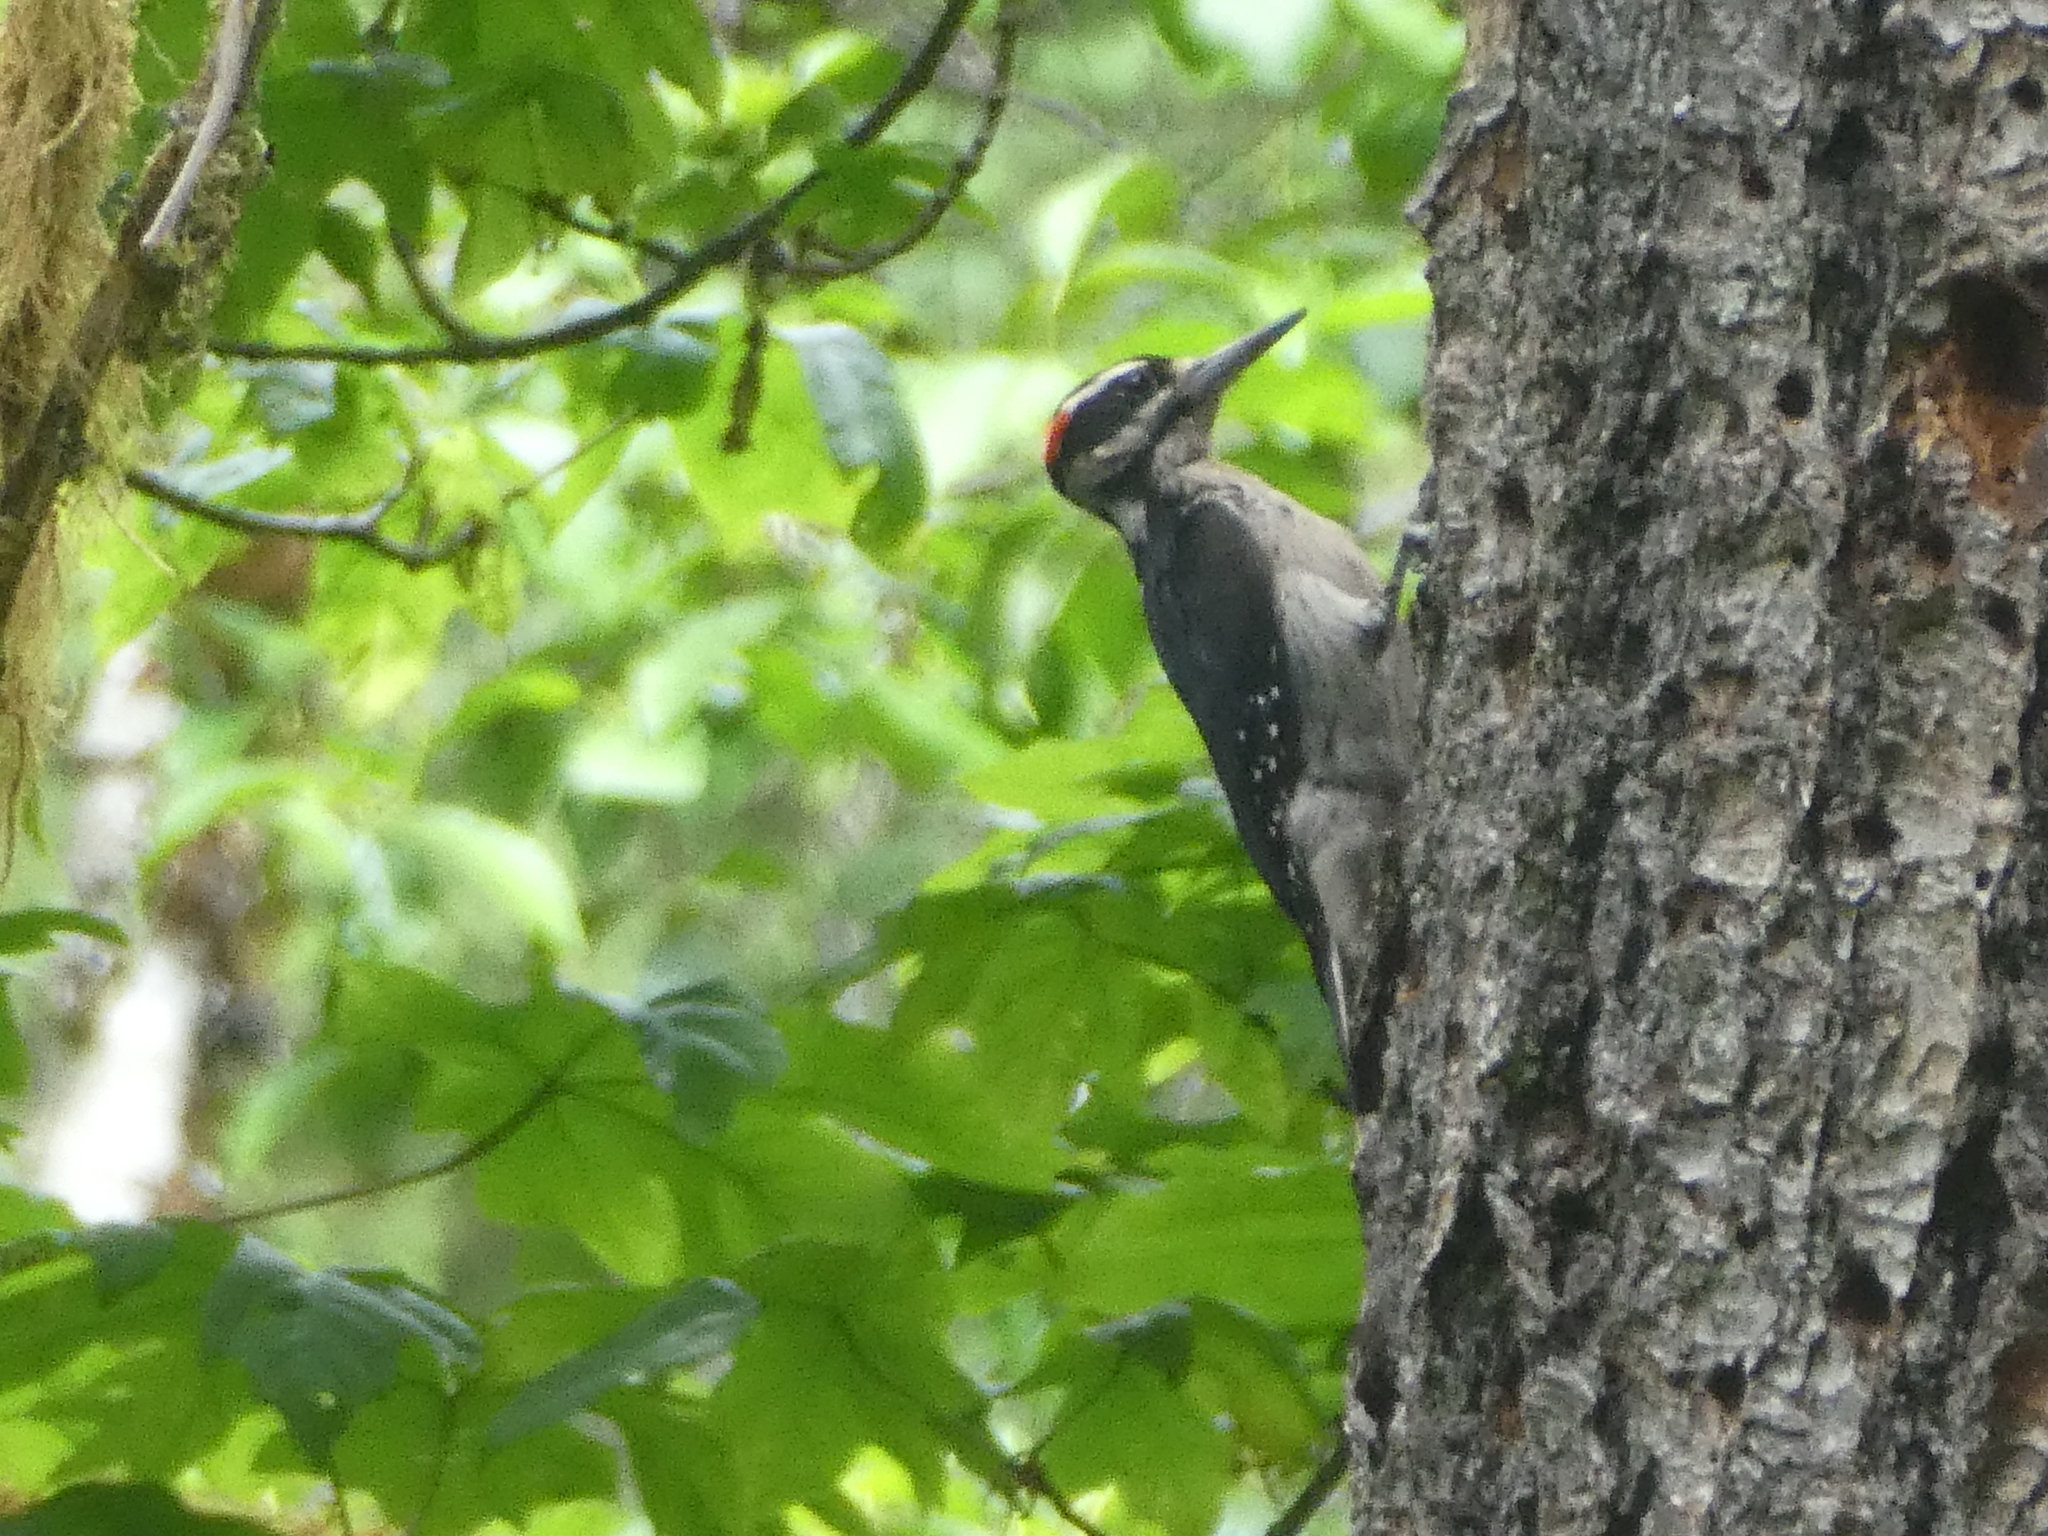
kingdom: Animalia
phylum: Chordata
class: Aves
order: Piciformes
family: Picidae
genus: Leuconotopicus
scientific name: Leuconotopicus villosus
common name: Hairy woodpecker
